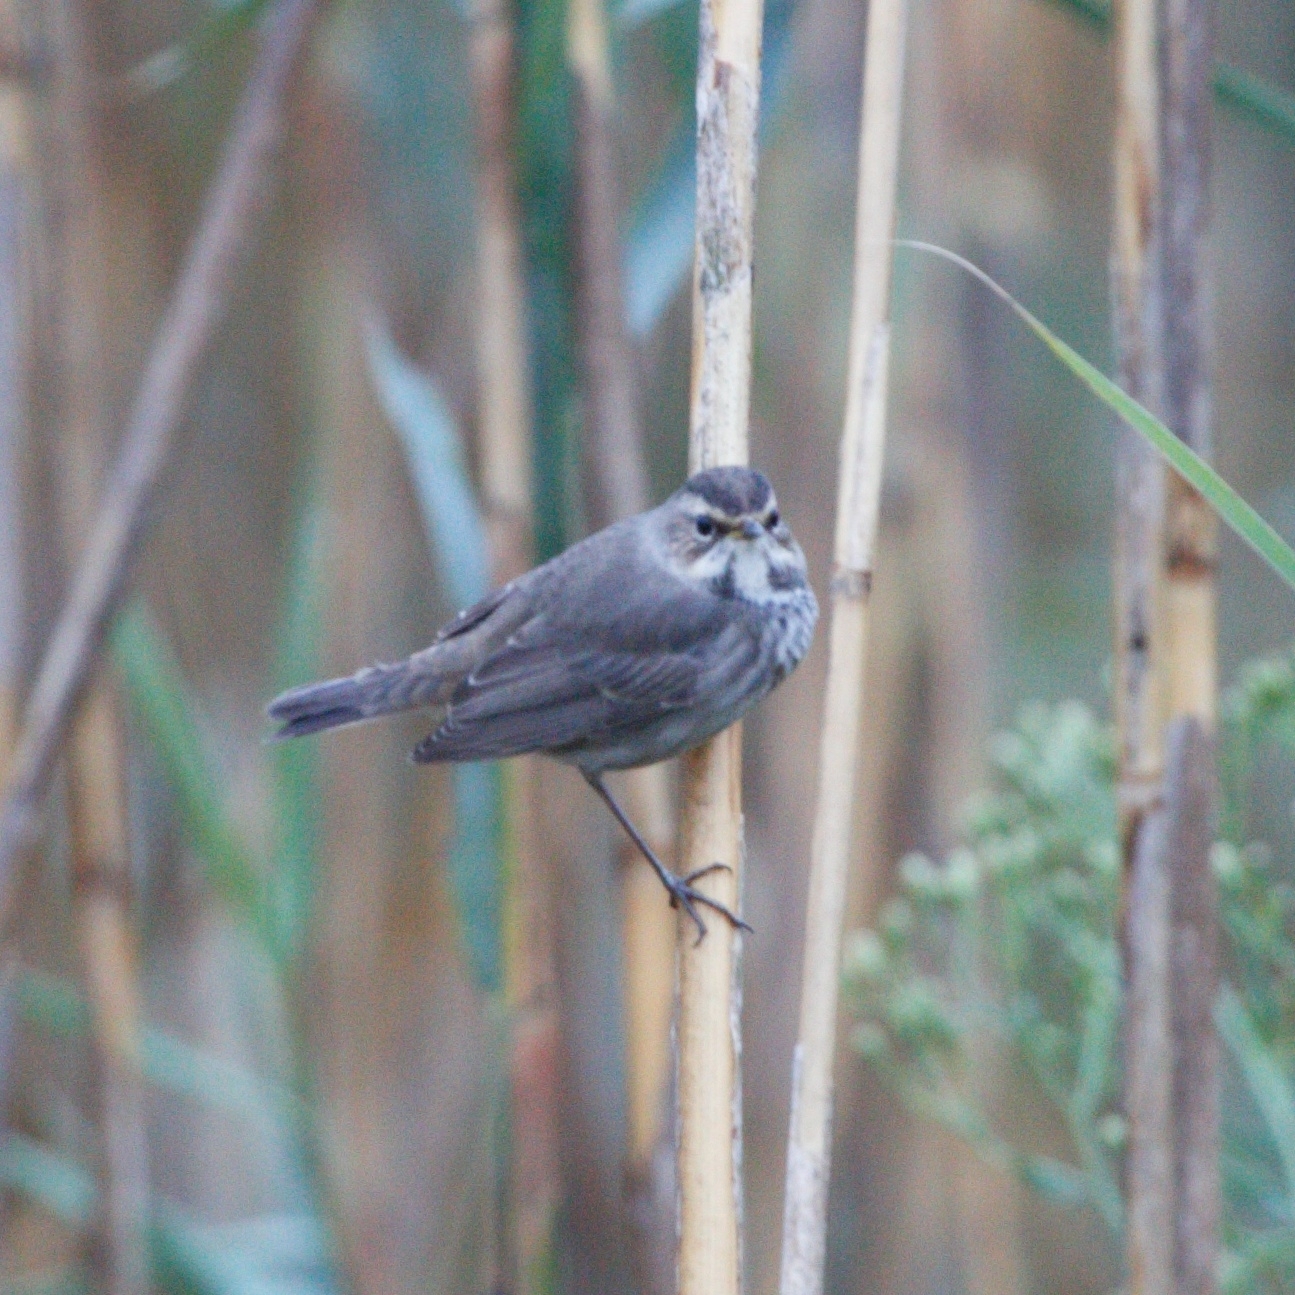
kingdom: Animalia
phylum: Chordata
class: Aves
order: Passeriformes
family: Muscicapidae
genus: Luscinia
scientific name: Luscinia svecica
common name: Bluethroat
